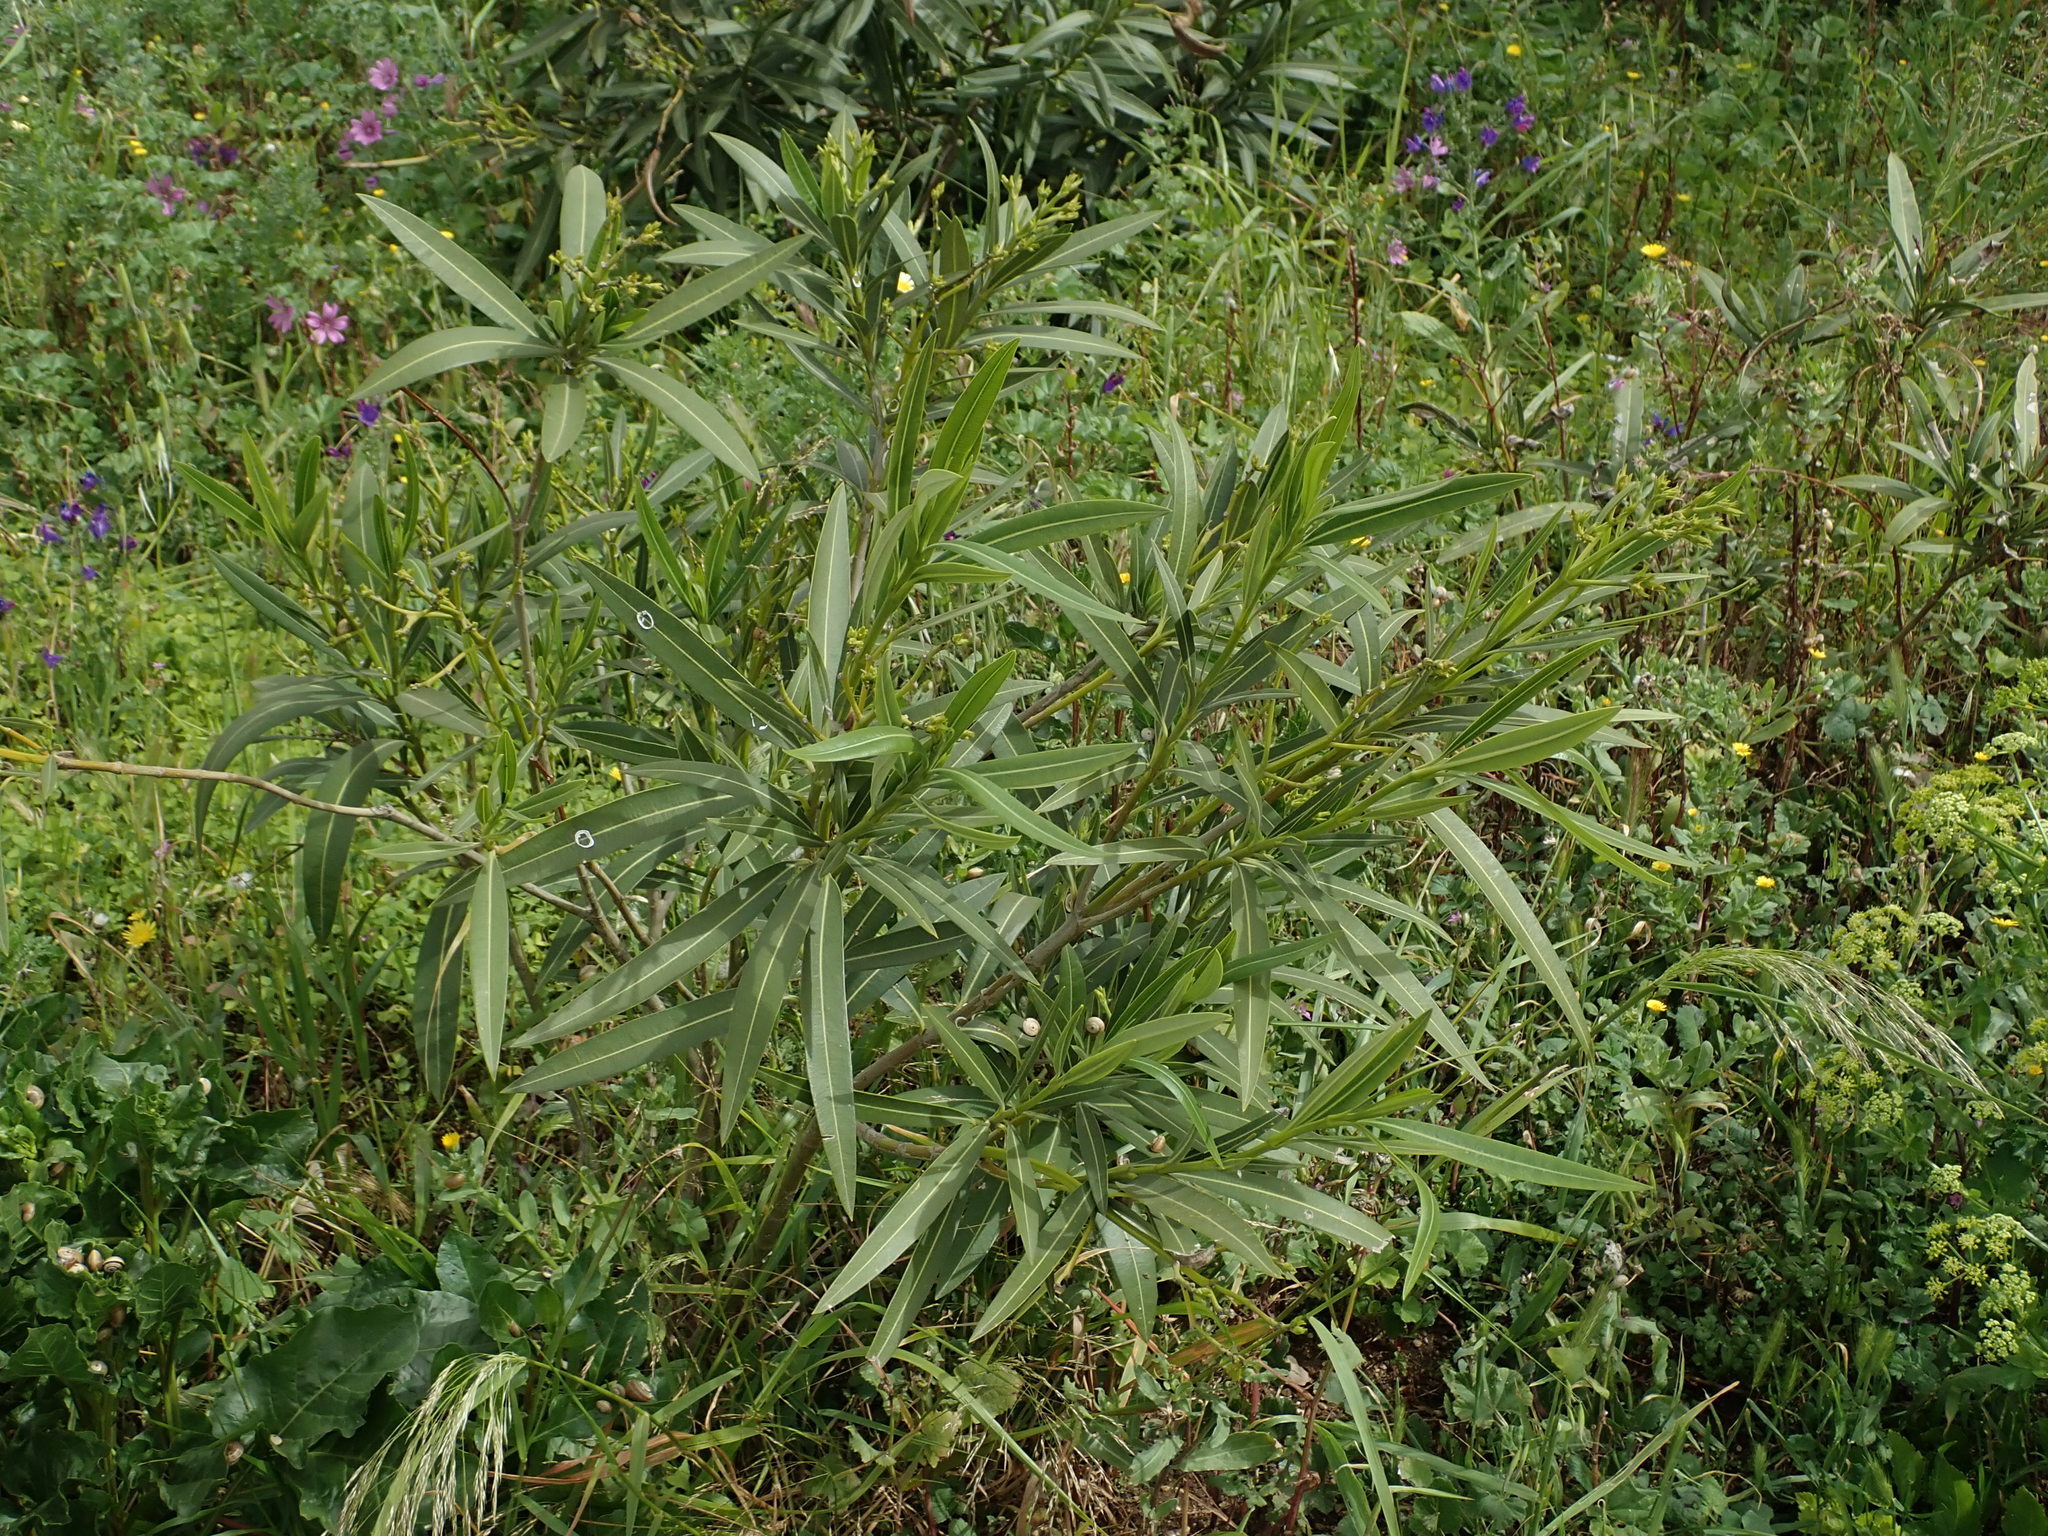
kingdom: Plantae
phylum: Tracheophyta
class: Magnoliopsida
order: Gentianales
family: Apocynaceae
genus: Nerium
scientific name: Nerium oleander
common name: Oleander
